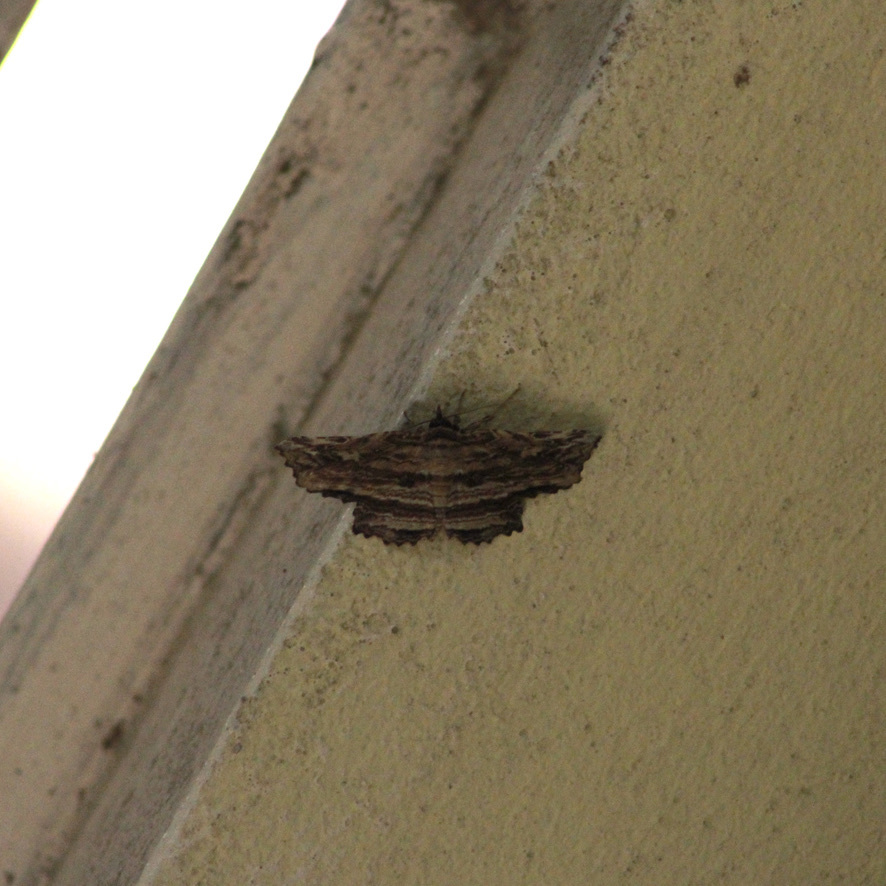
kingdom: Animalia
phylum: Arthropoda
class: Insecta
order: Lepidoptera
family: Erebidae
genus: Diagrapta
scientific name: Diagrapta lignaria
